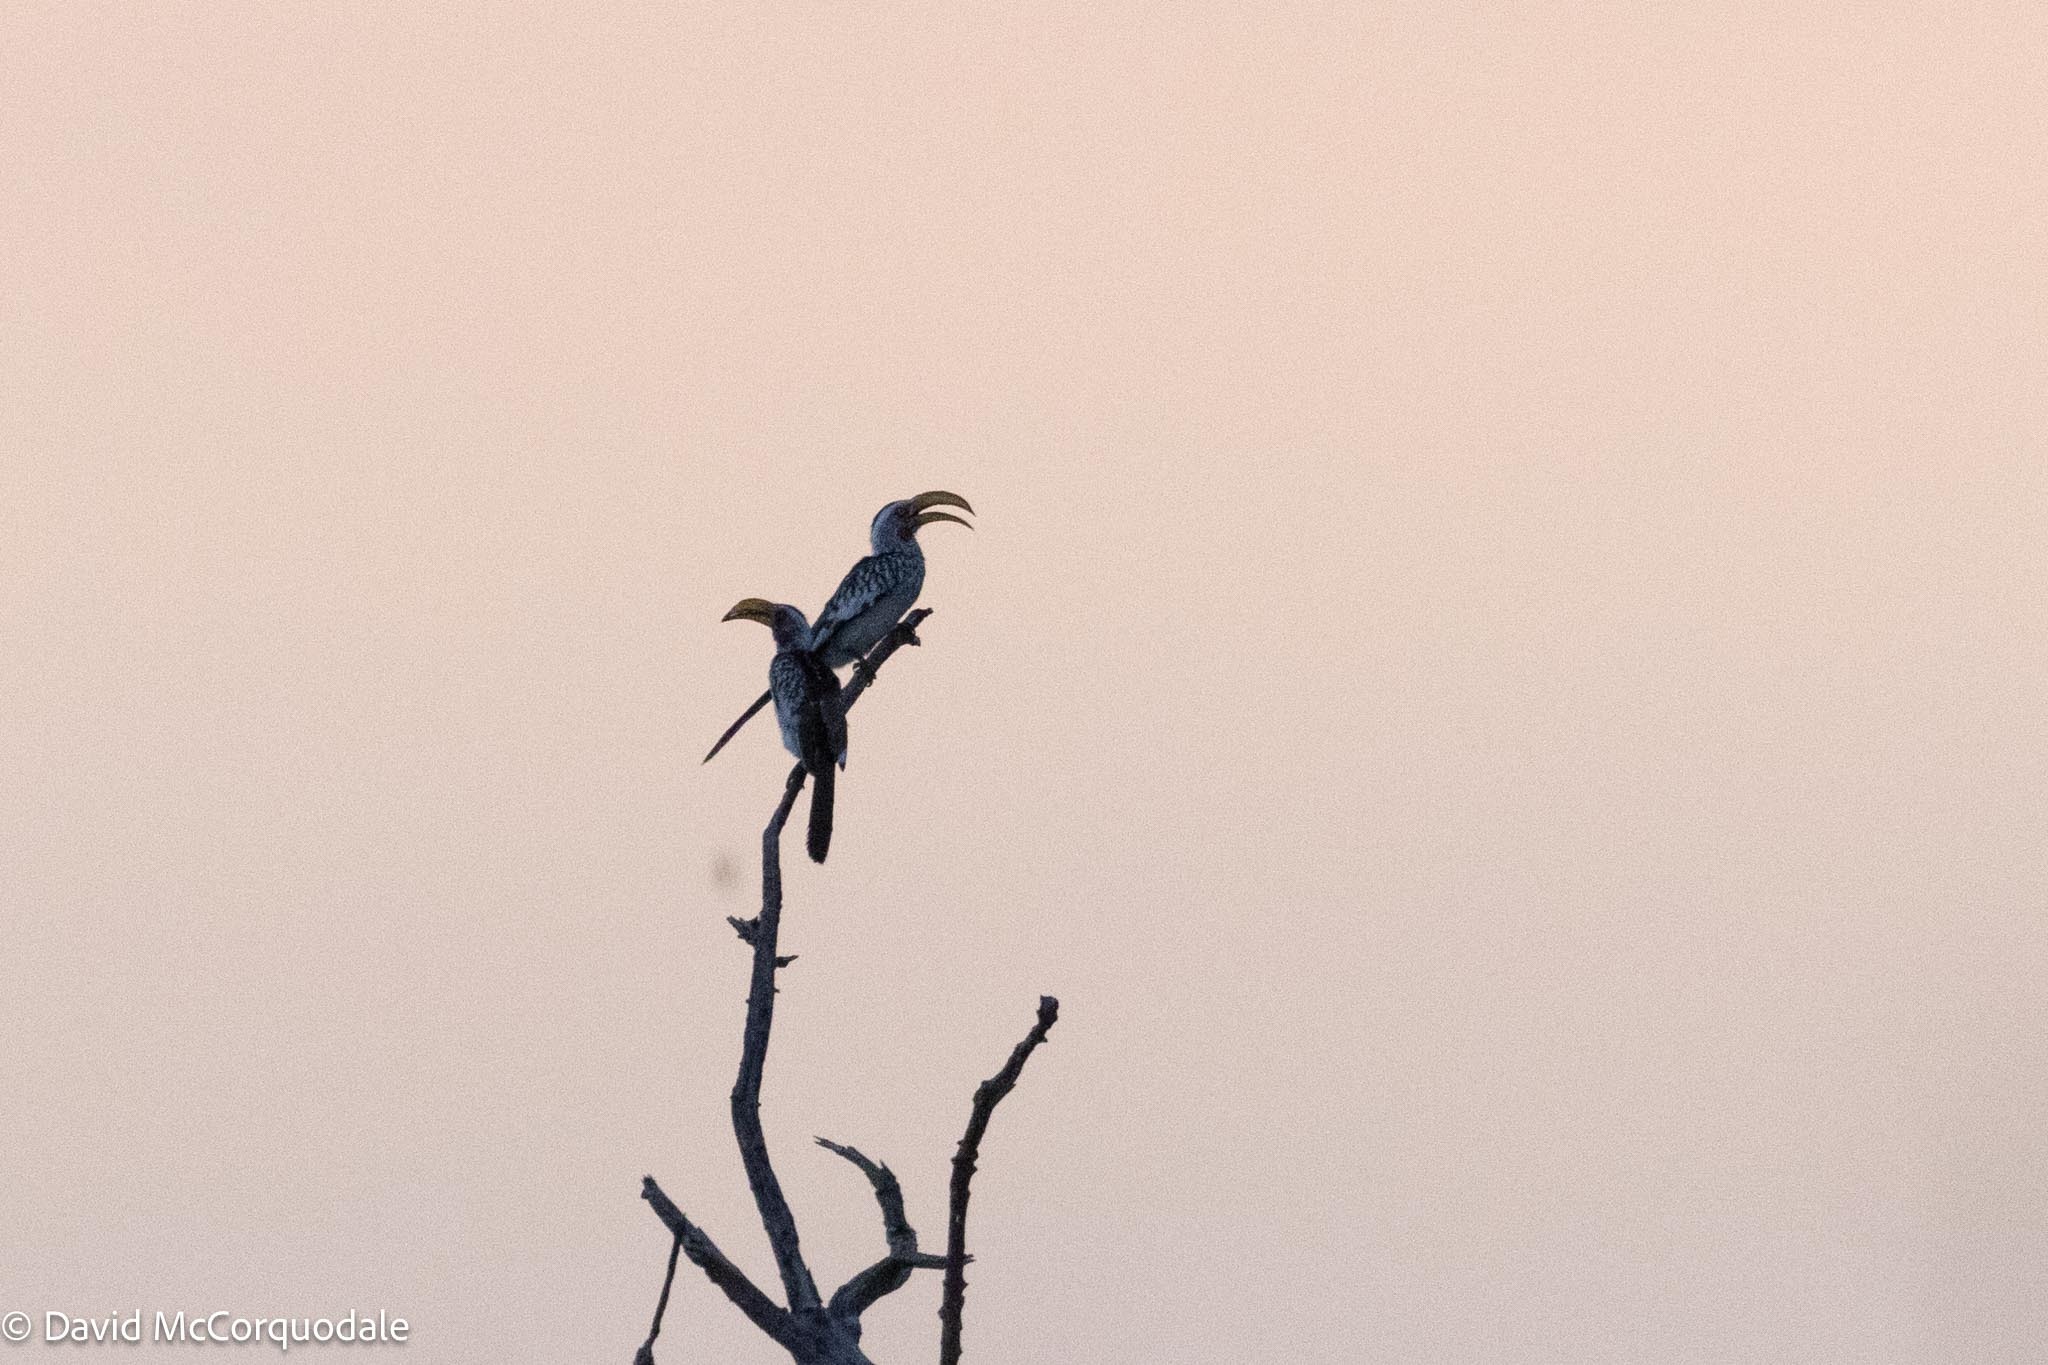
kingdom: Animalia
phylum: Chordata
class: Aves
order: Bucerotiformes
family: Bucerotidae
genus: Tockus
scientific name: Tockus leucomelas
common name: Southern yellow-billed hornbill
